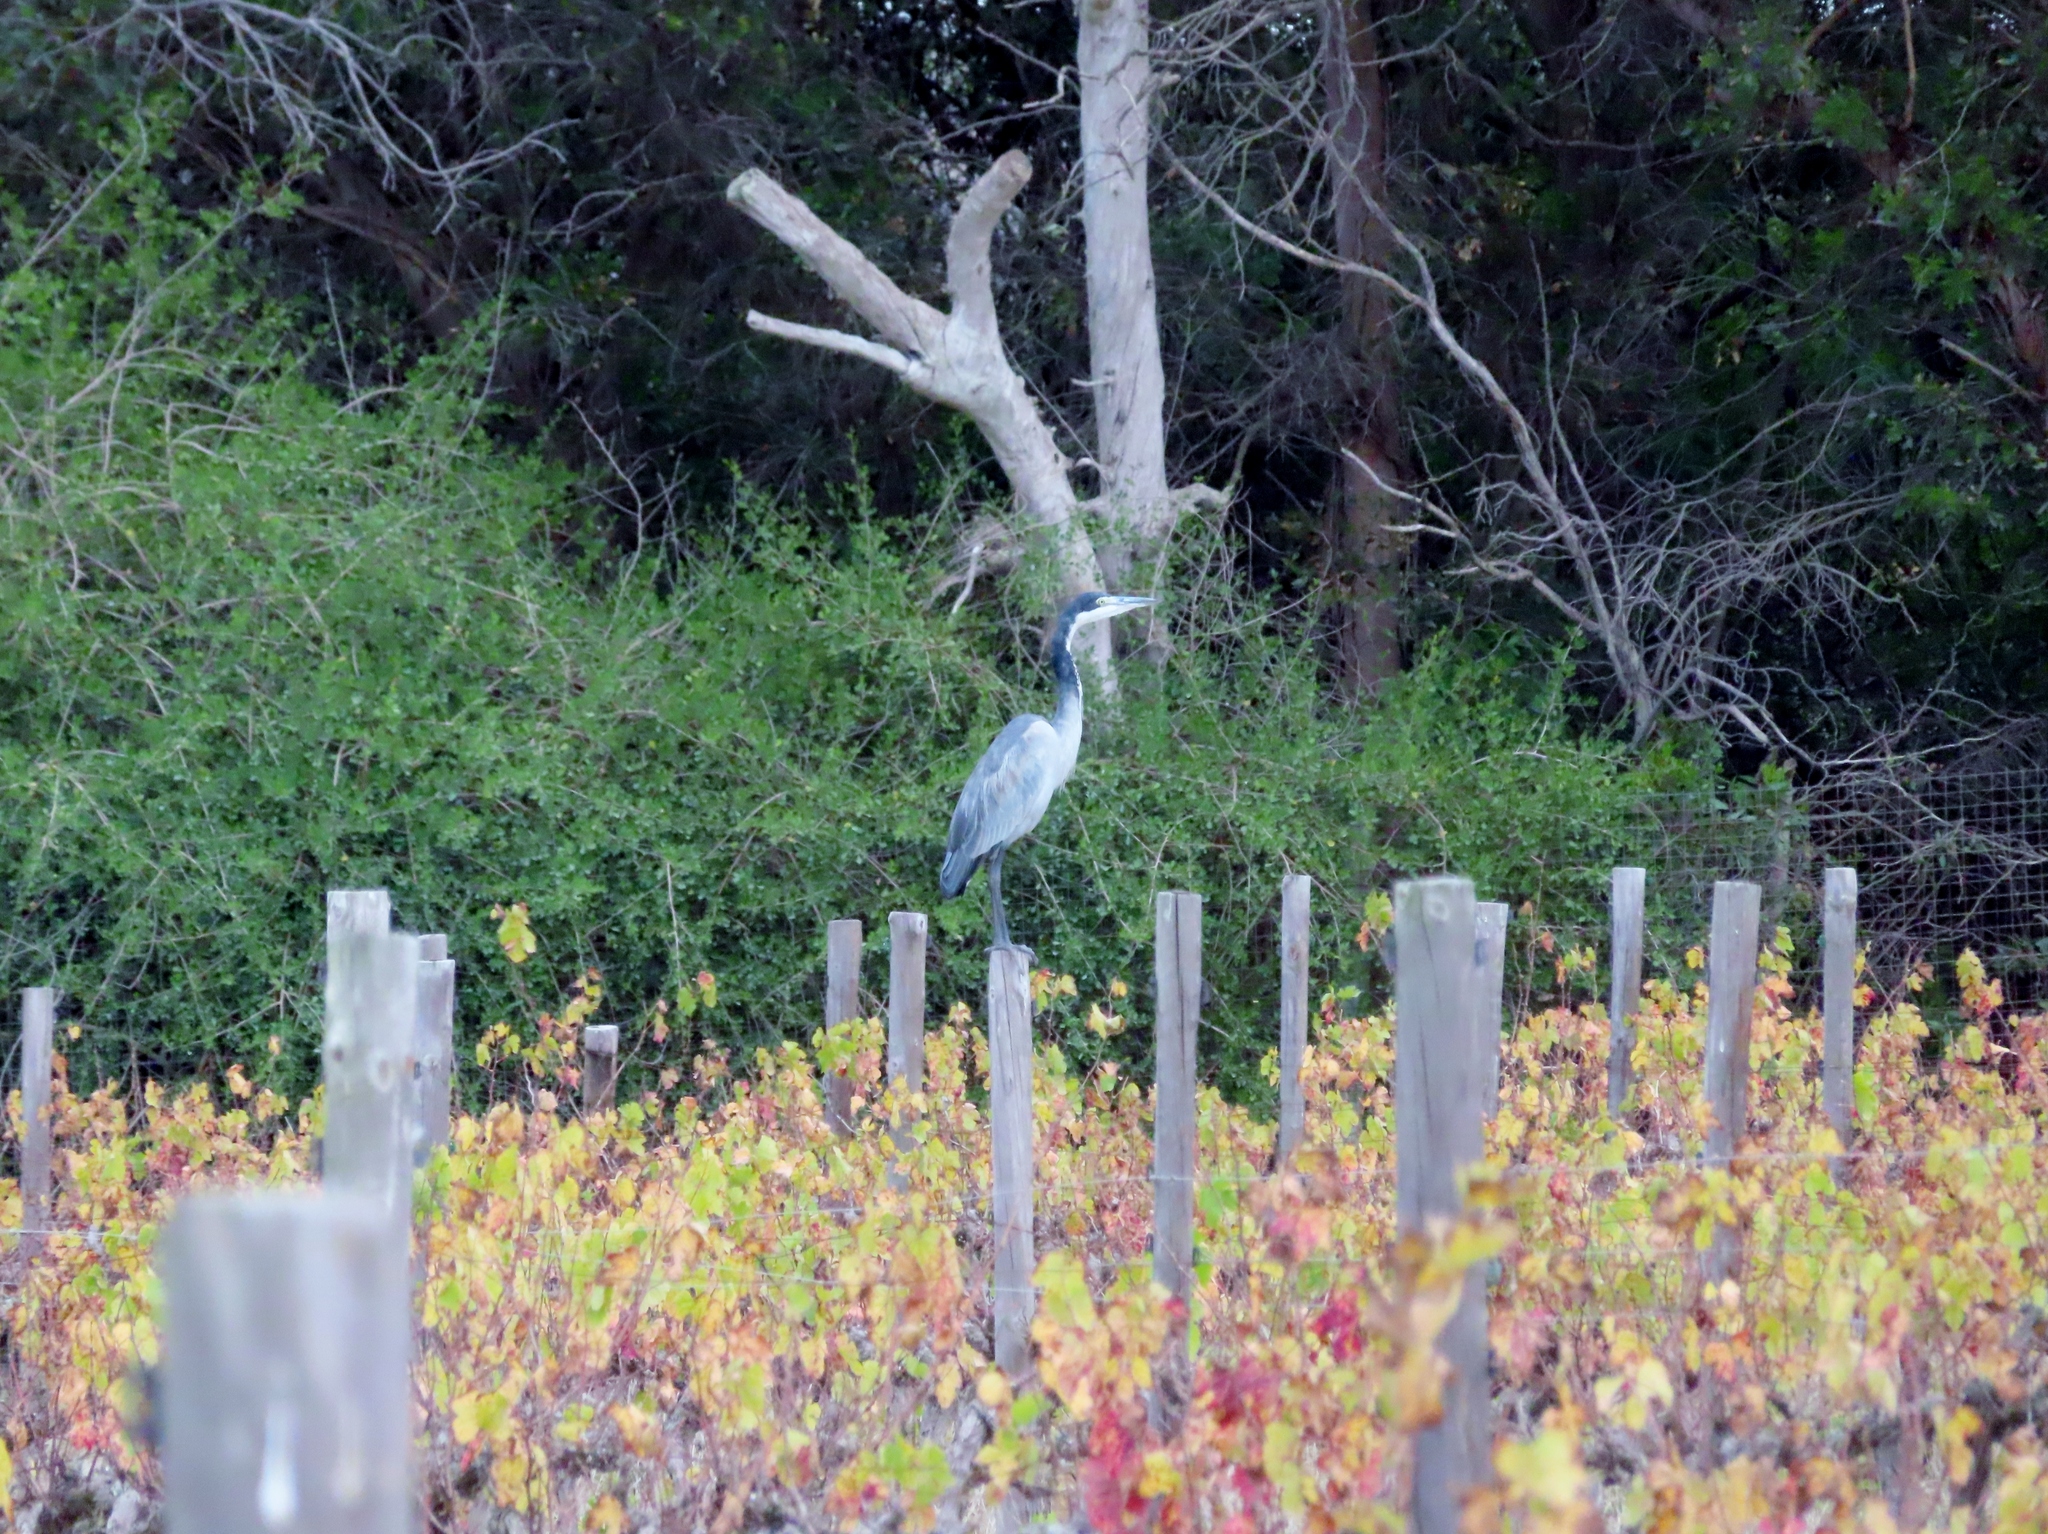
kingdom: Animalia
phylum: Chordata
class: Aves
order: Pelecaniformes
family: Ardeidae
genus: Ardea
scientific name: Ardea melanocephala
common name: Black-headed heron
